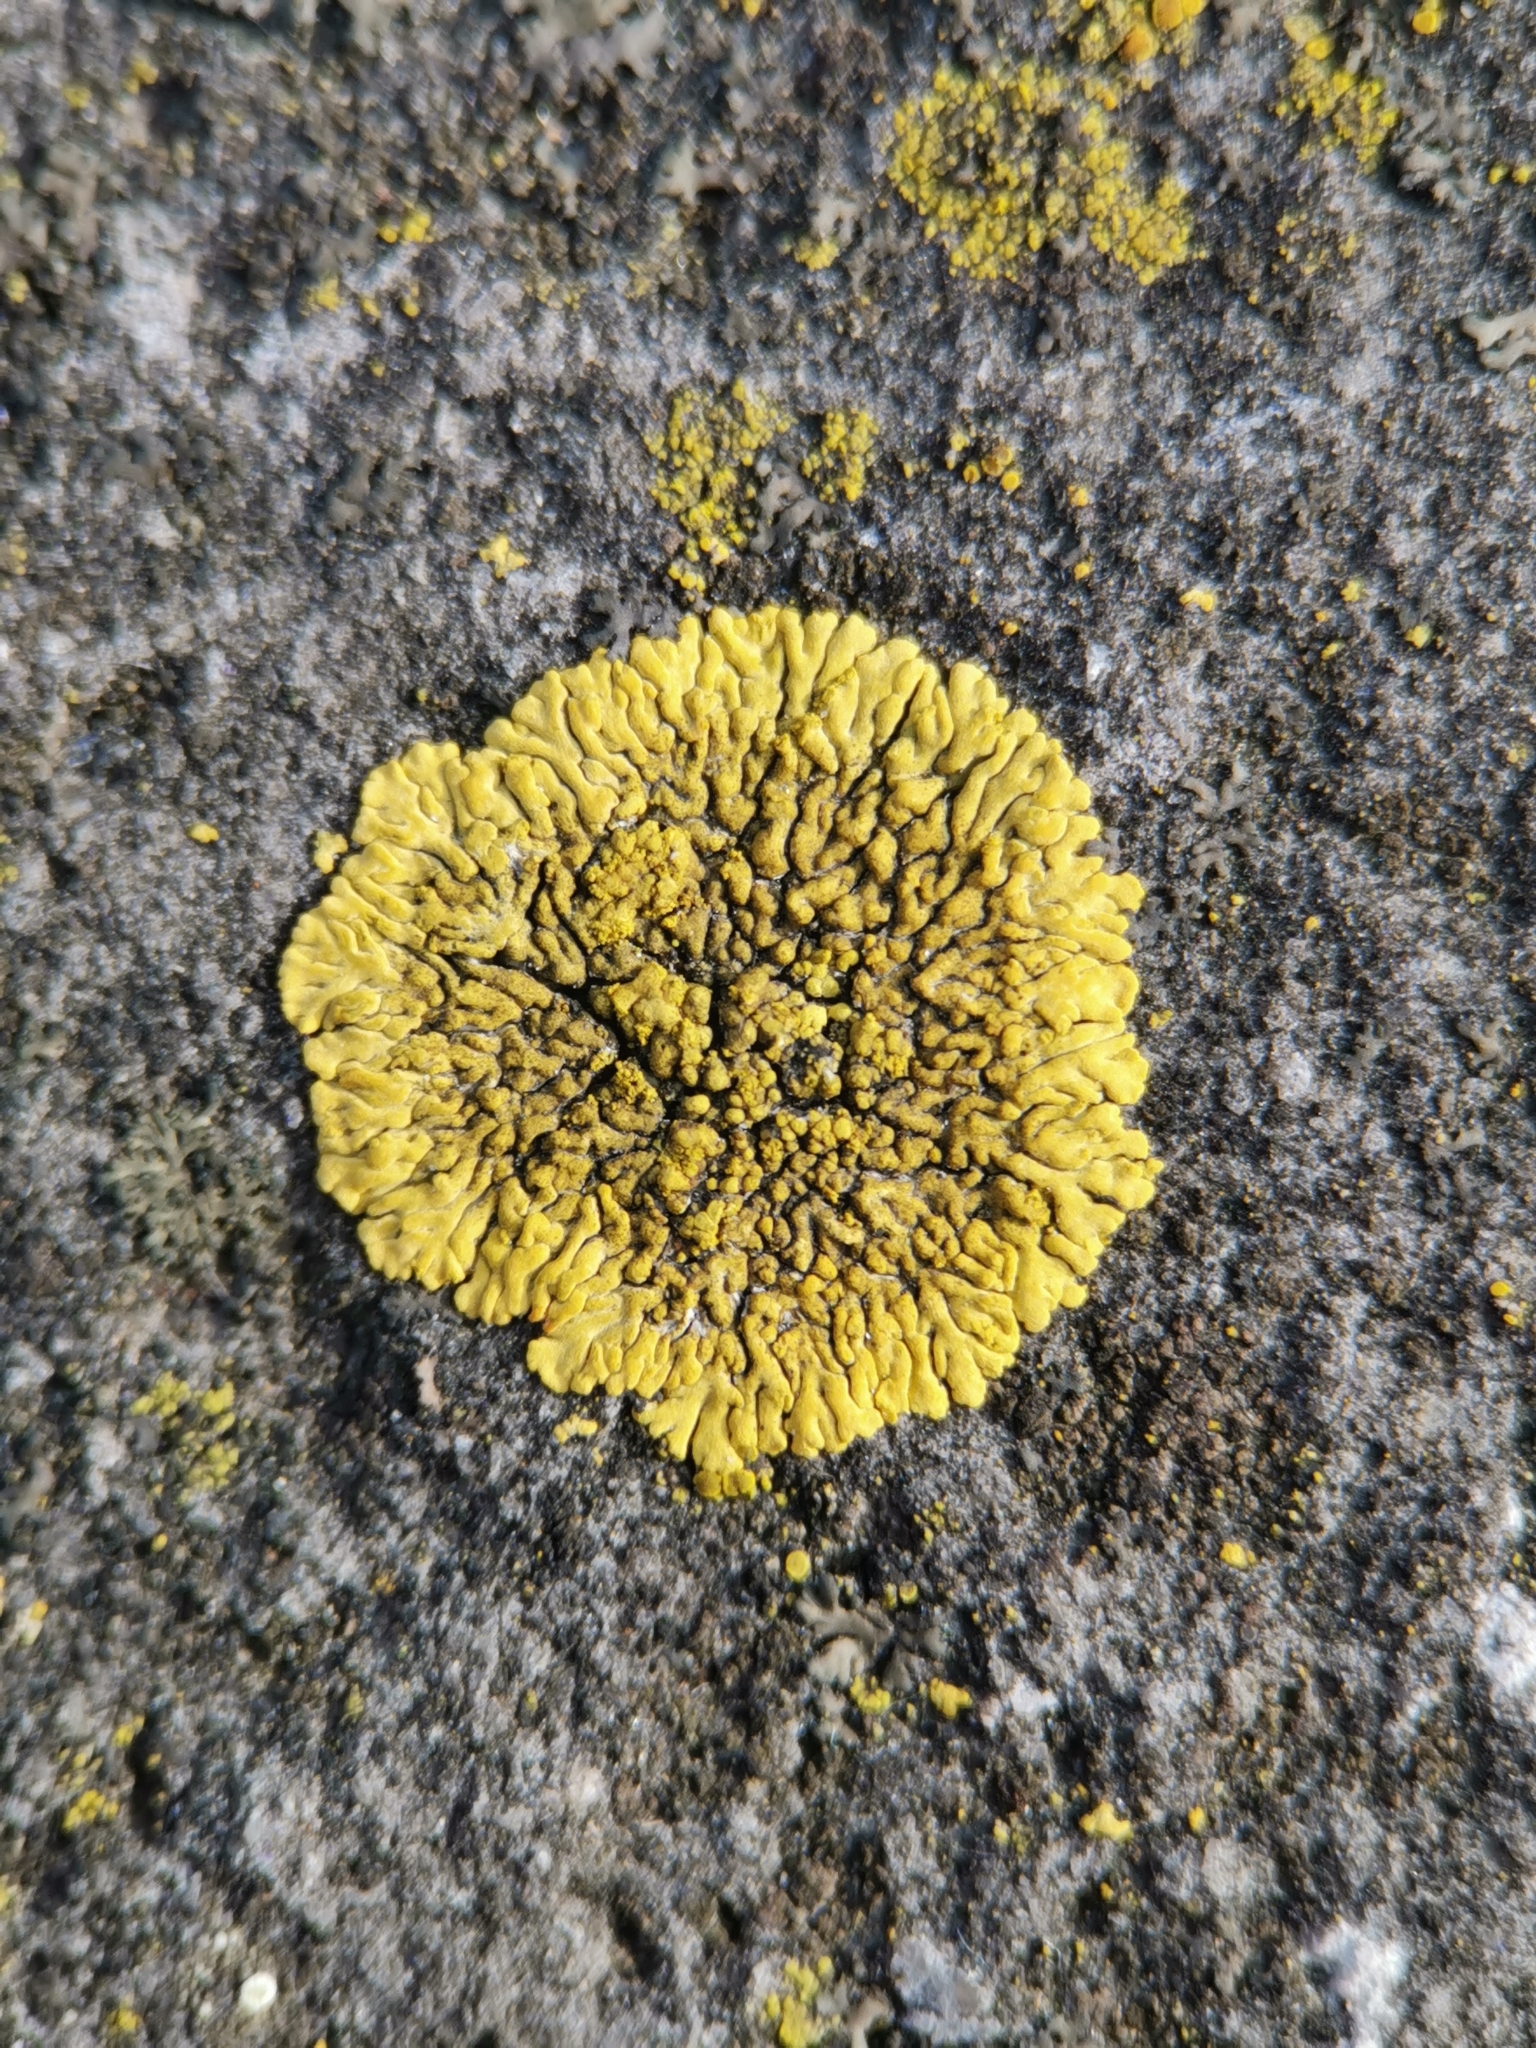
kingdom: Fungi
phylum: Ascomycota
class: Lecanoromycetes
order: Teloschistales
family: Teloschistaceae
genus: Calogaya
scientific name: Calogaya decipiens
